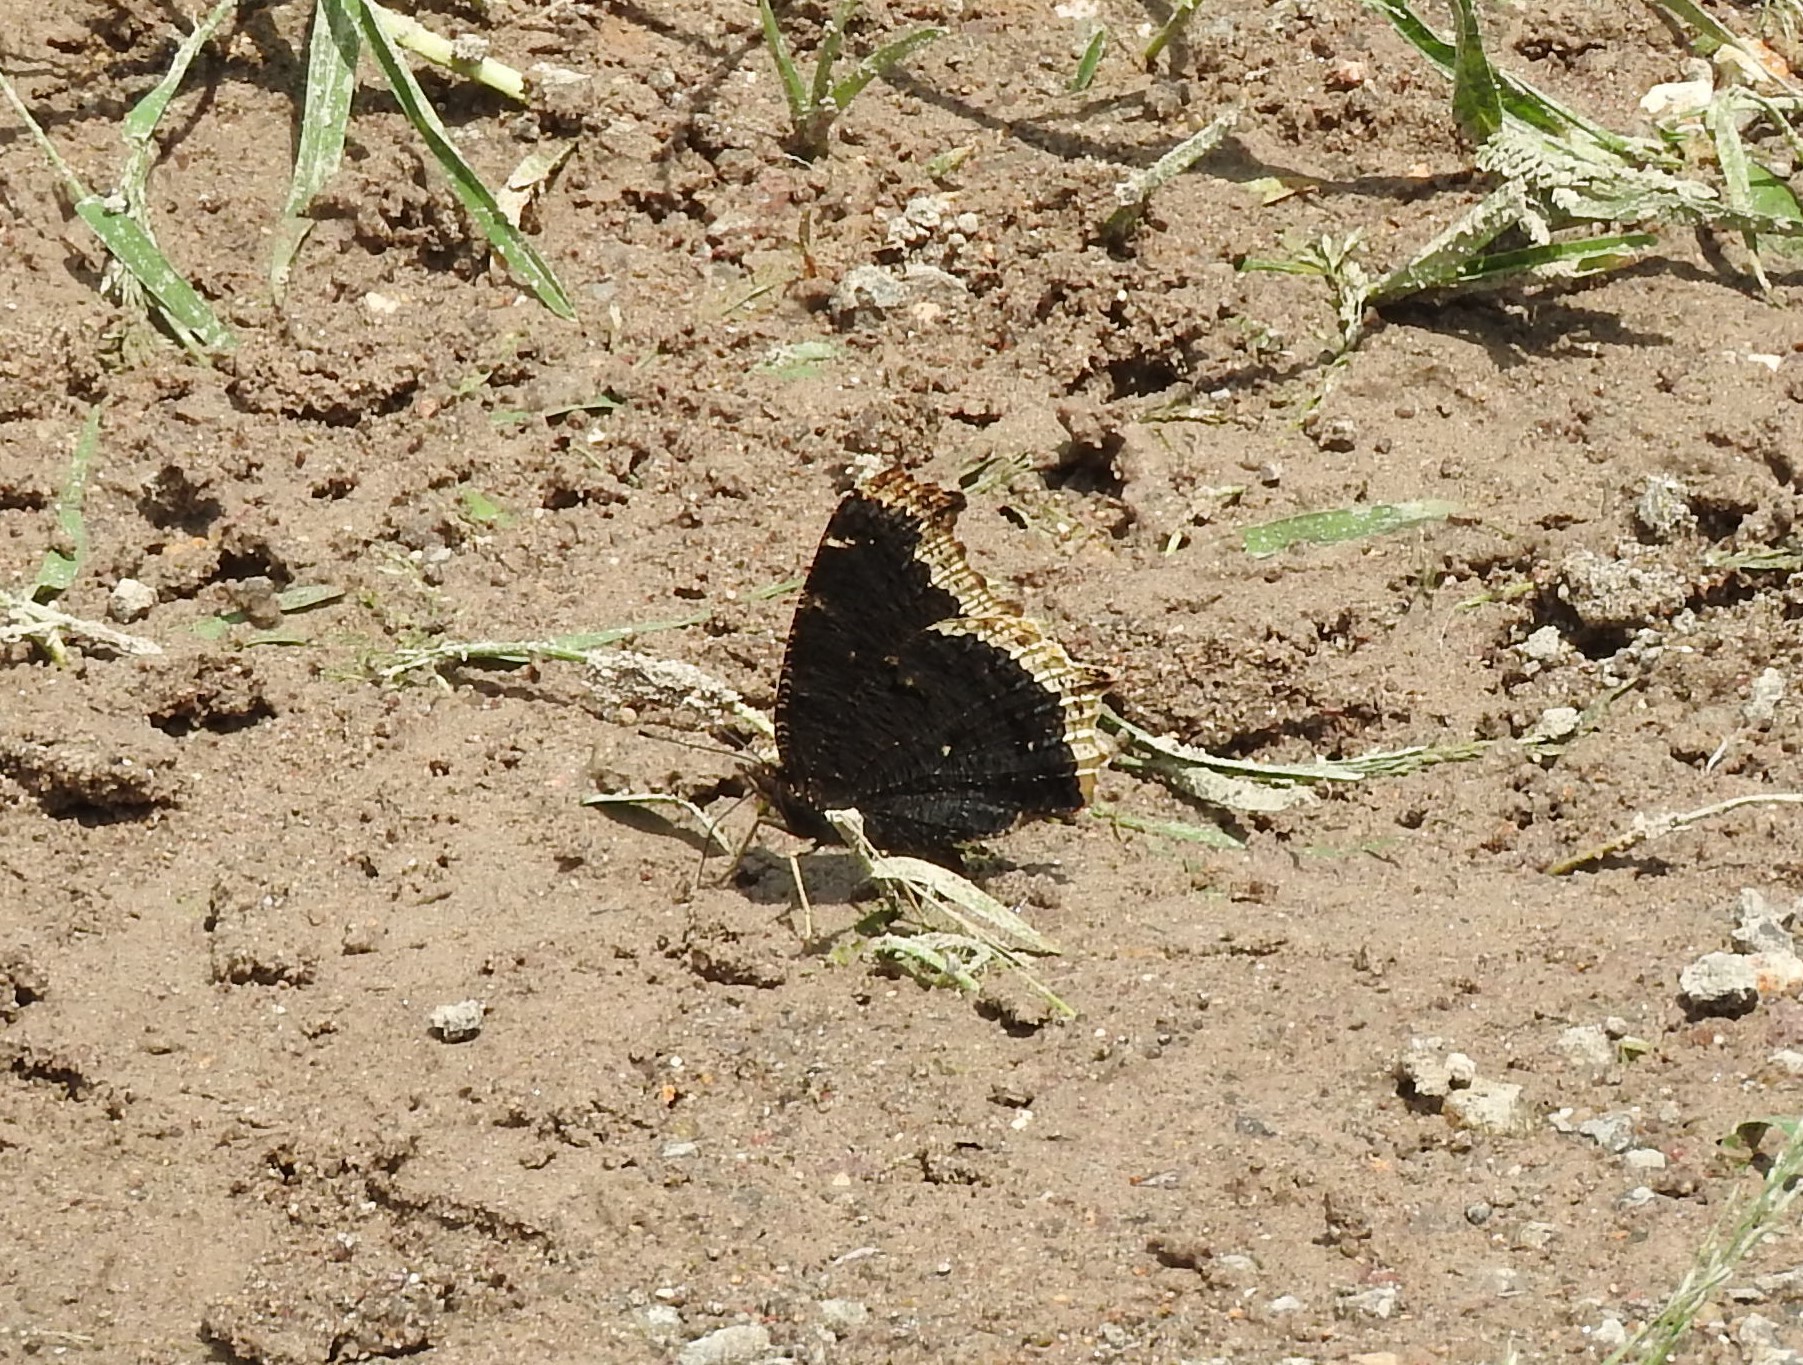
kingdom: Animalia
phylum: Arthropoda
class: Insecta
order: Lepidoptera
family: Nymphalidae
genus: Nymphalis
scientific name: Nymphalis antiopa
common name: Camberwell beauty
